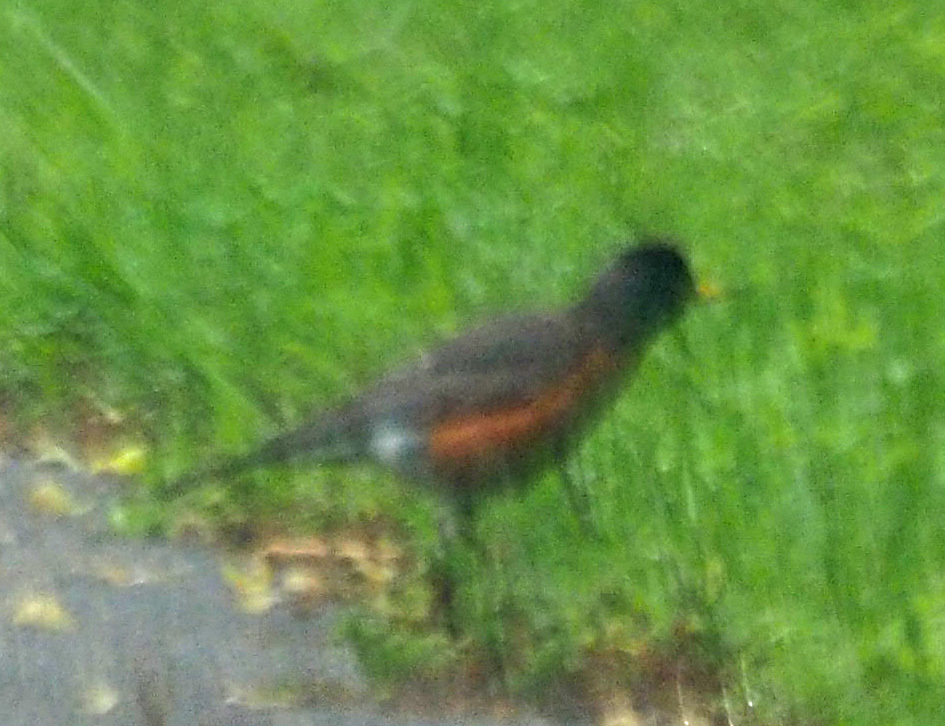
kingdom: Animalia
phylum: Chordata
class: Aves
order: Passeriformes
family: Turdidae
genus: Turdus
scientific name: Turdus migratorius
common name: American robin
